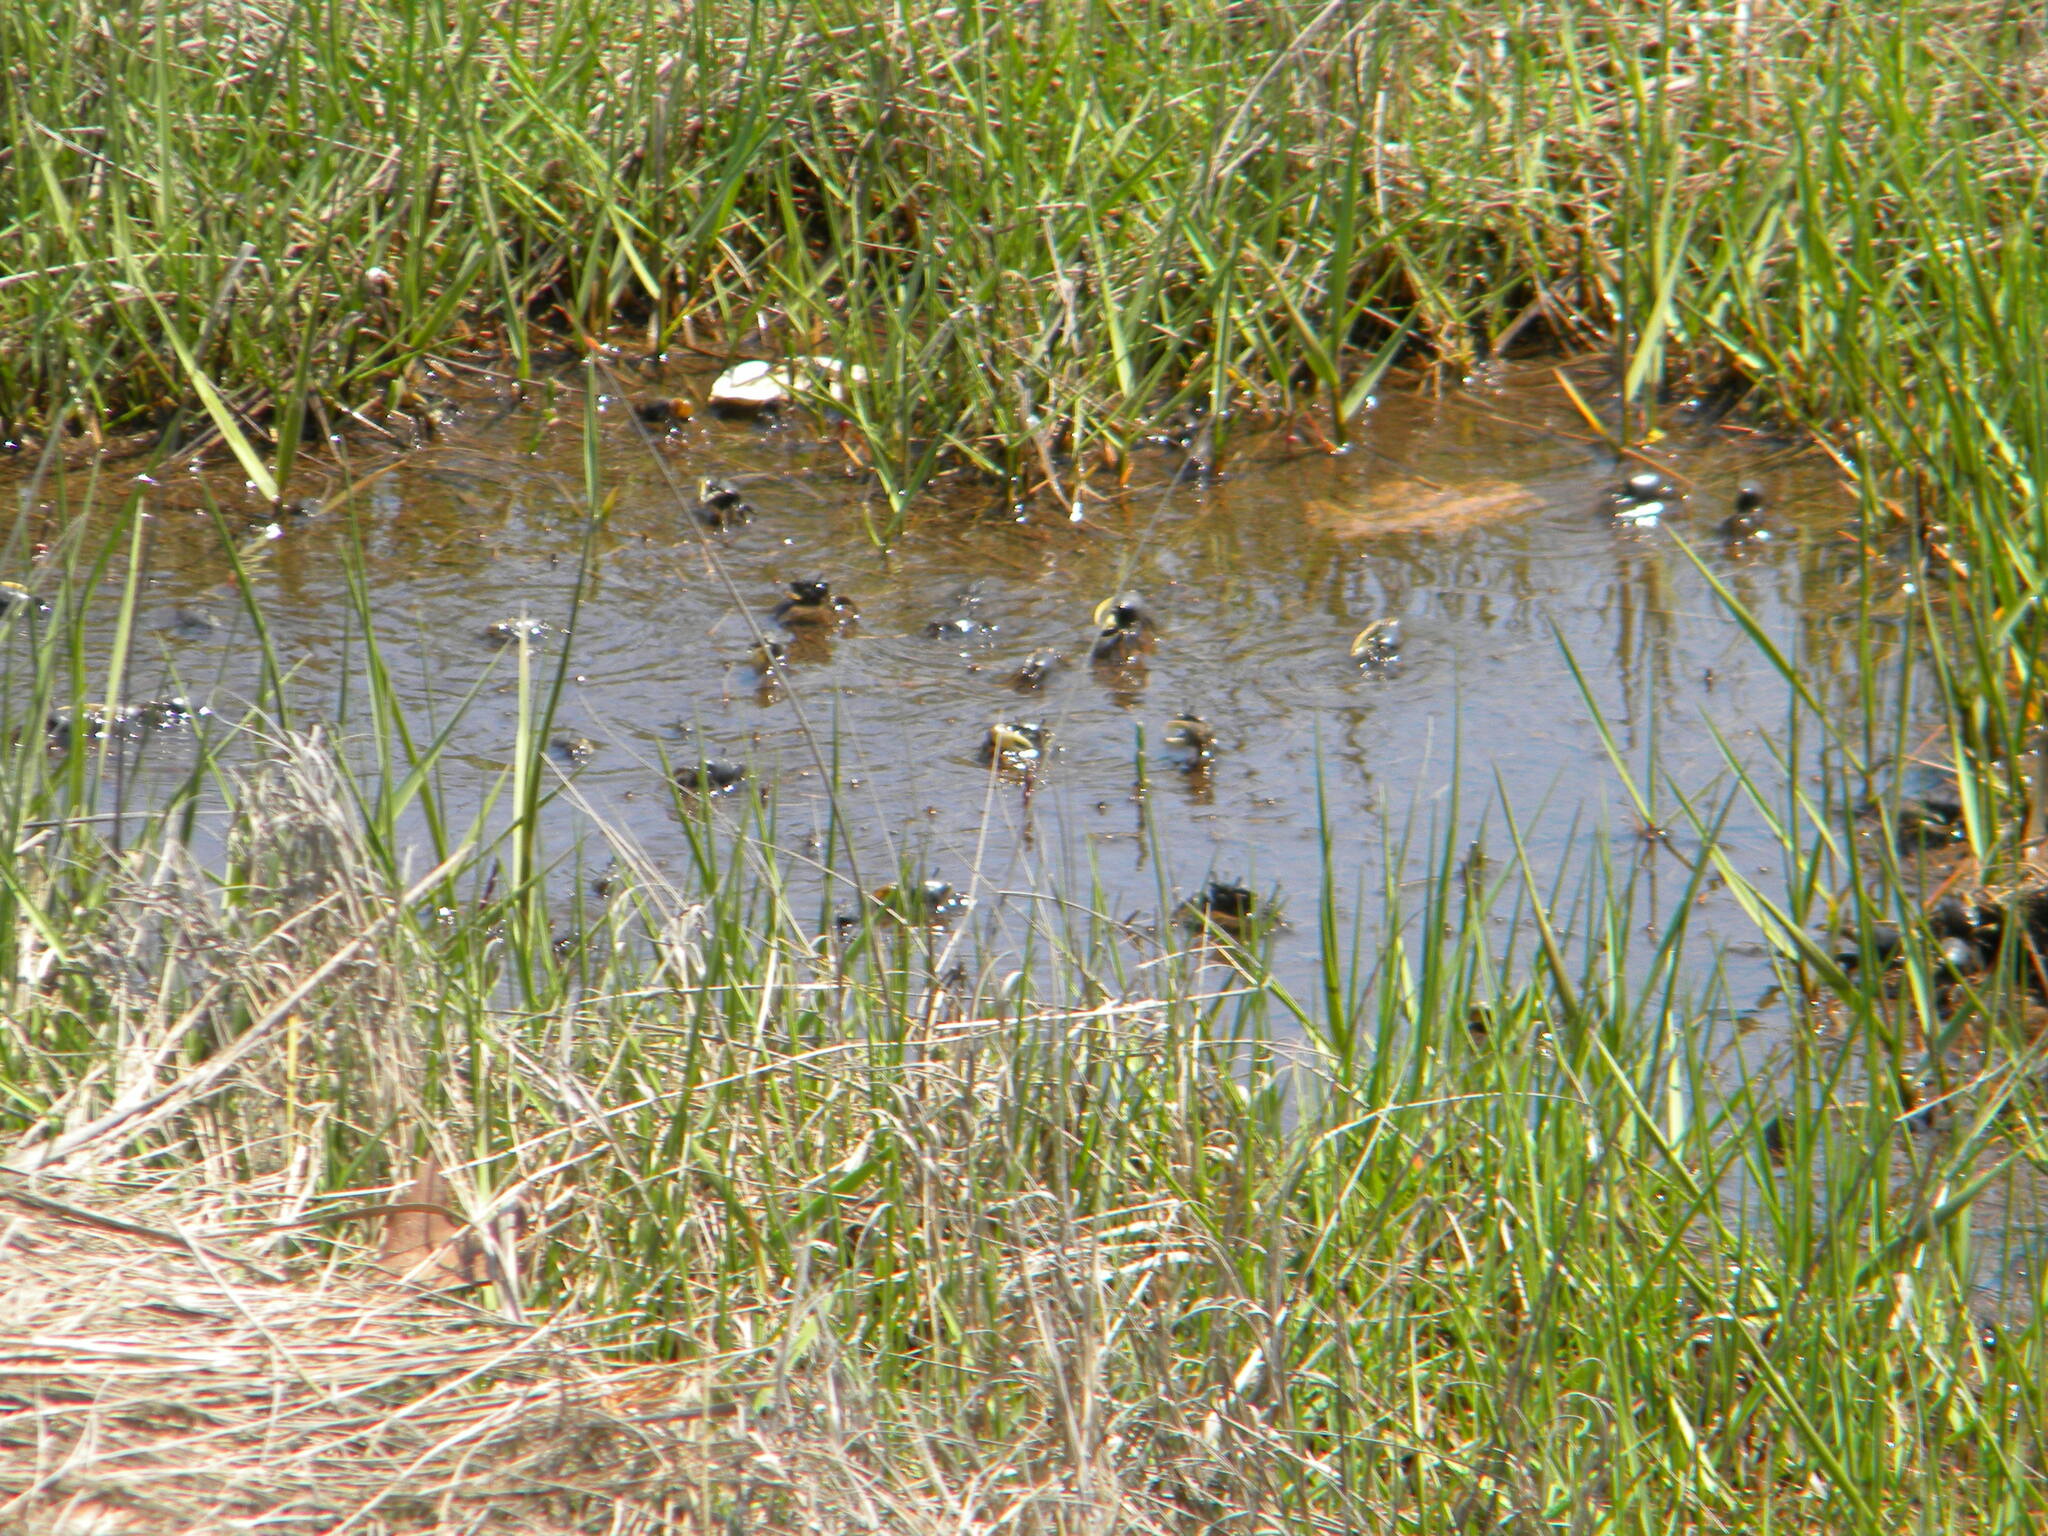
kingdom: Animalia
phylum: Arthropoda
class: Malacostraca
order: Decapoda
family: Ocypodidae
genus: Minuca
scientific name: Minuca pugnax
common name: Mud fiddler crab
